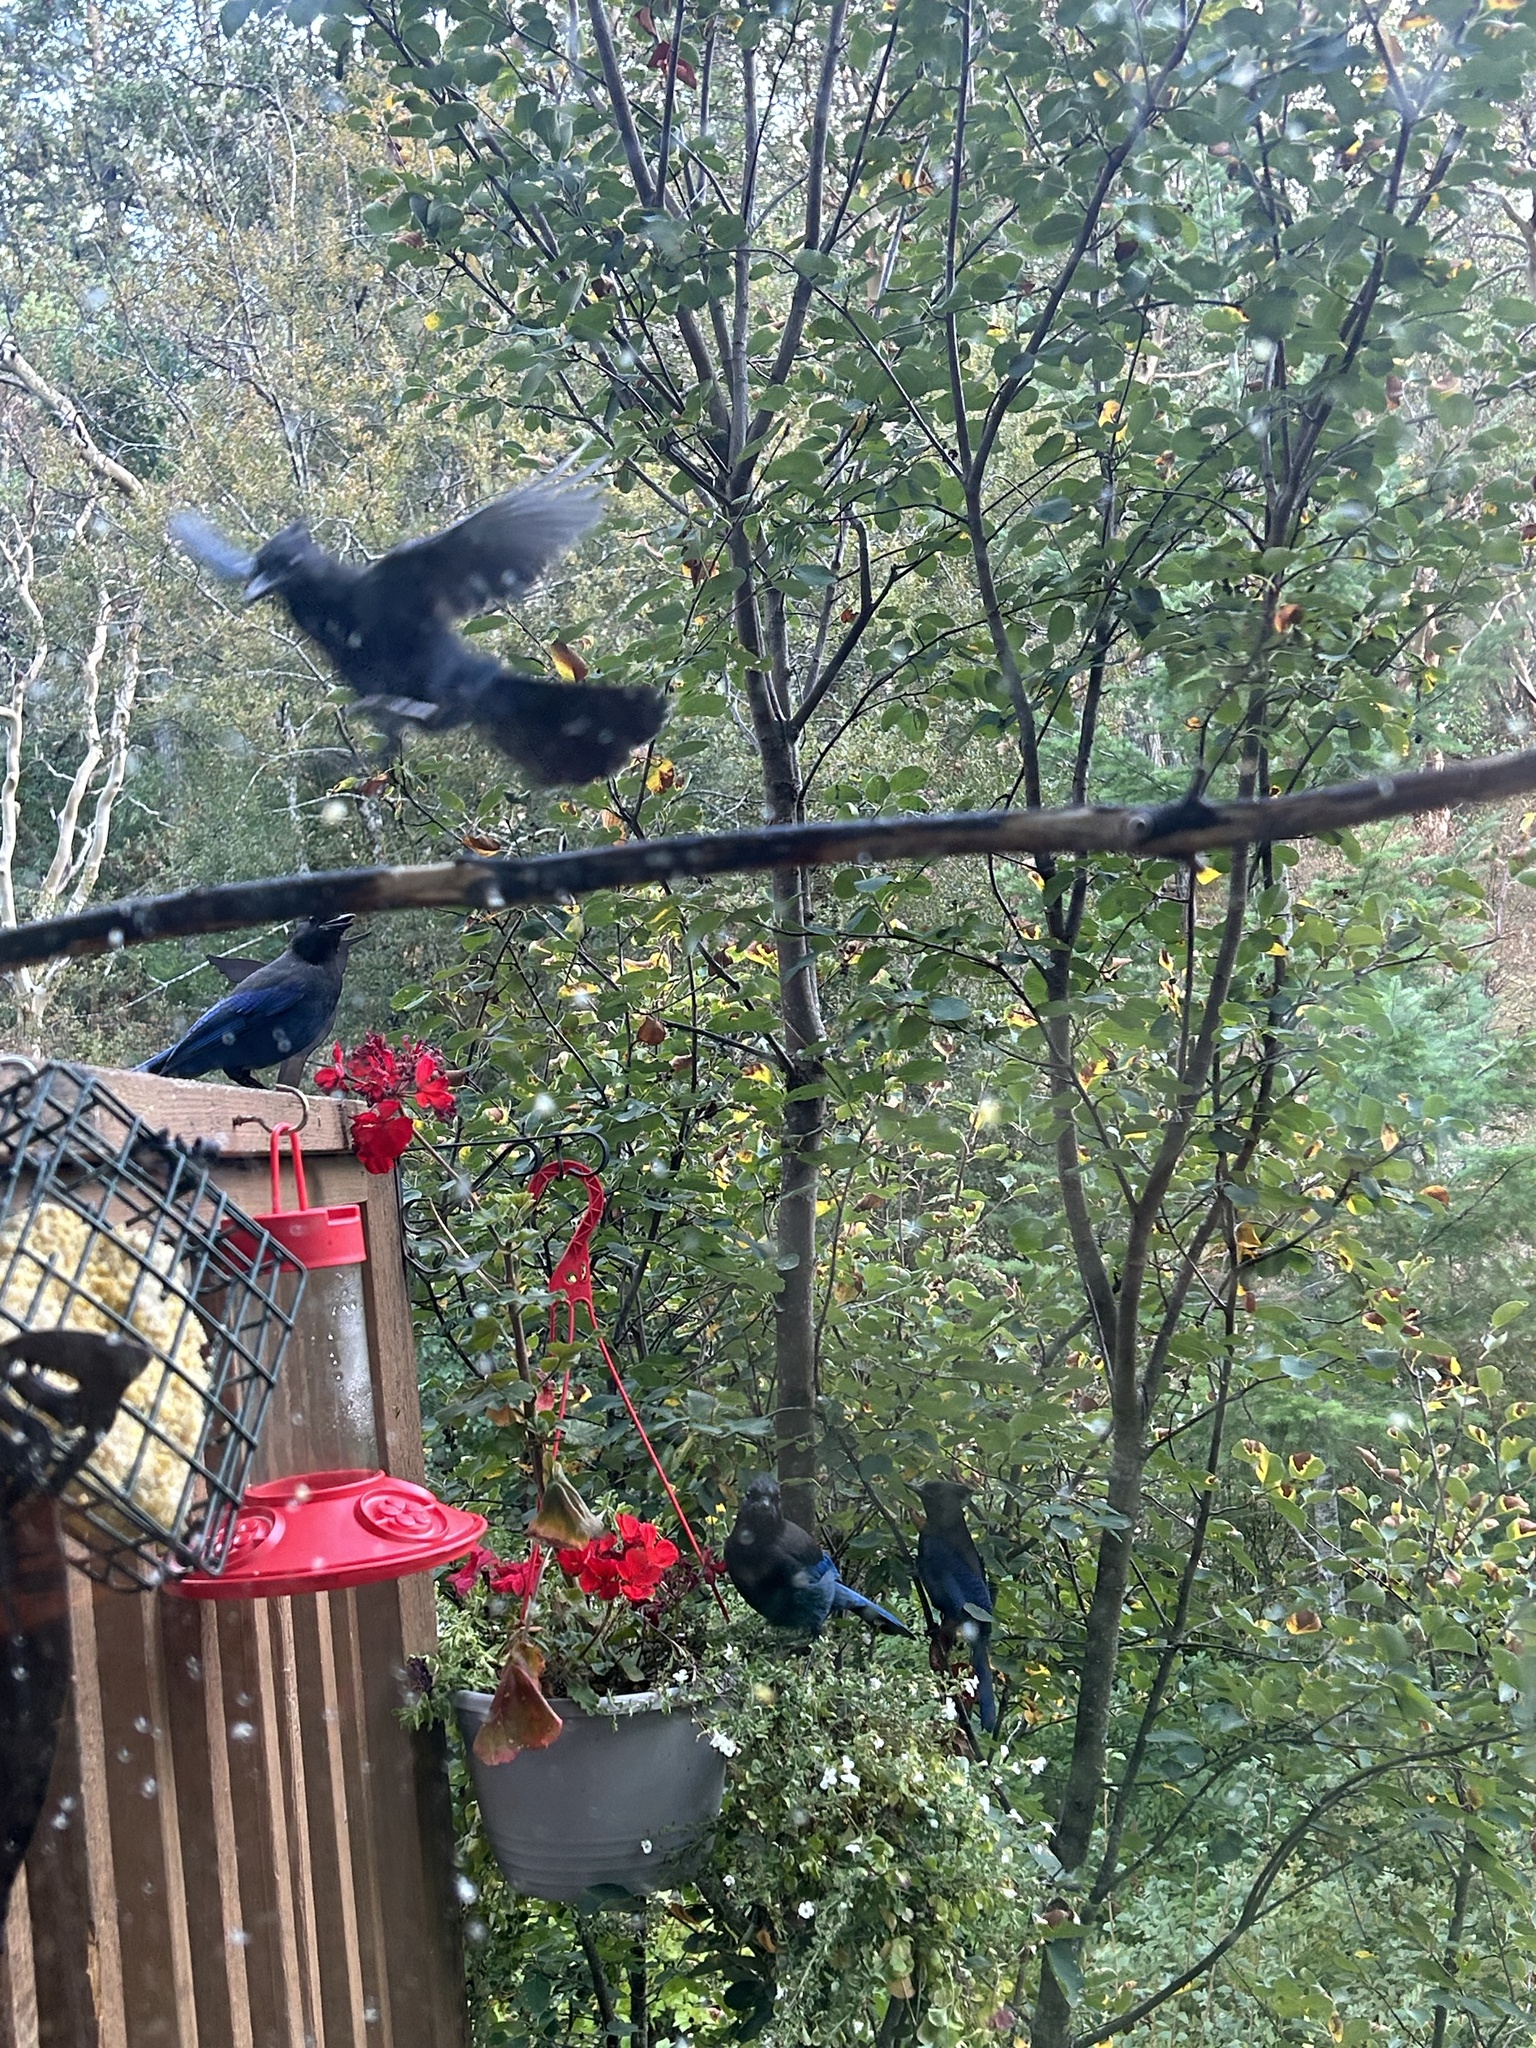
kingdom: Animalia
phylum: Chordata
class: Aves
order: Passeriformes
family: Corvidae
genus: Cyanocitta
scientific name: Cyanocitta stelleri
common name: Steller's jay
